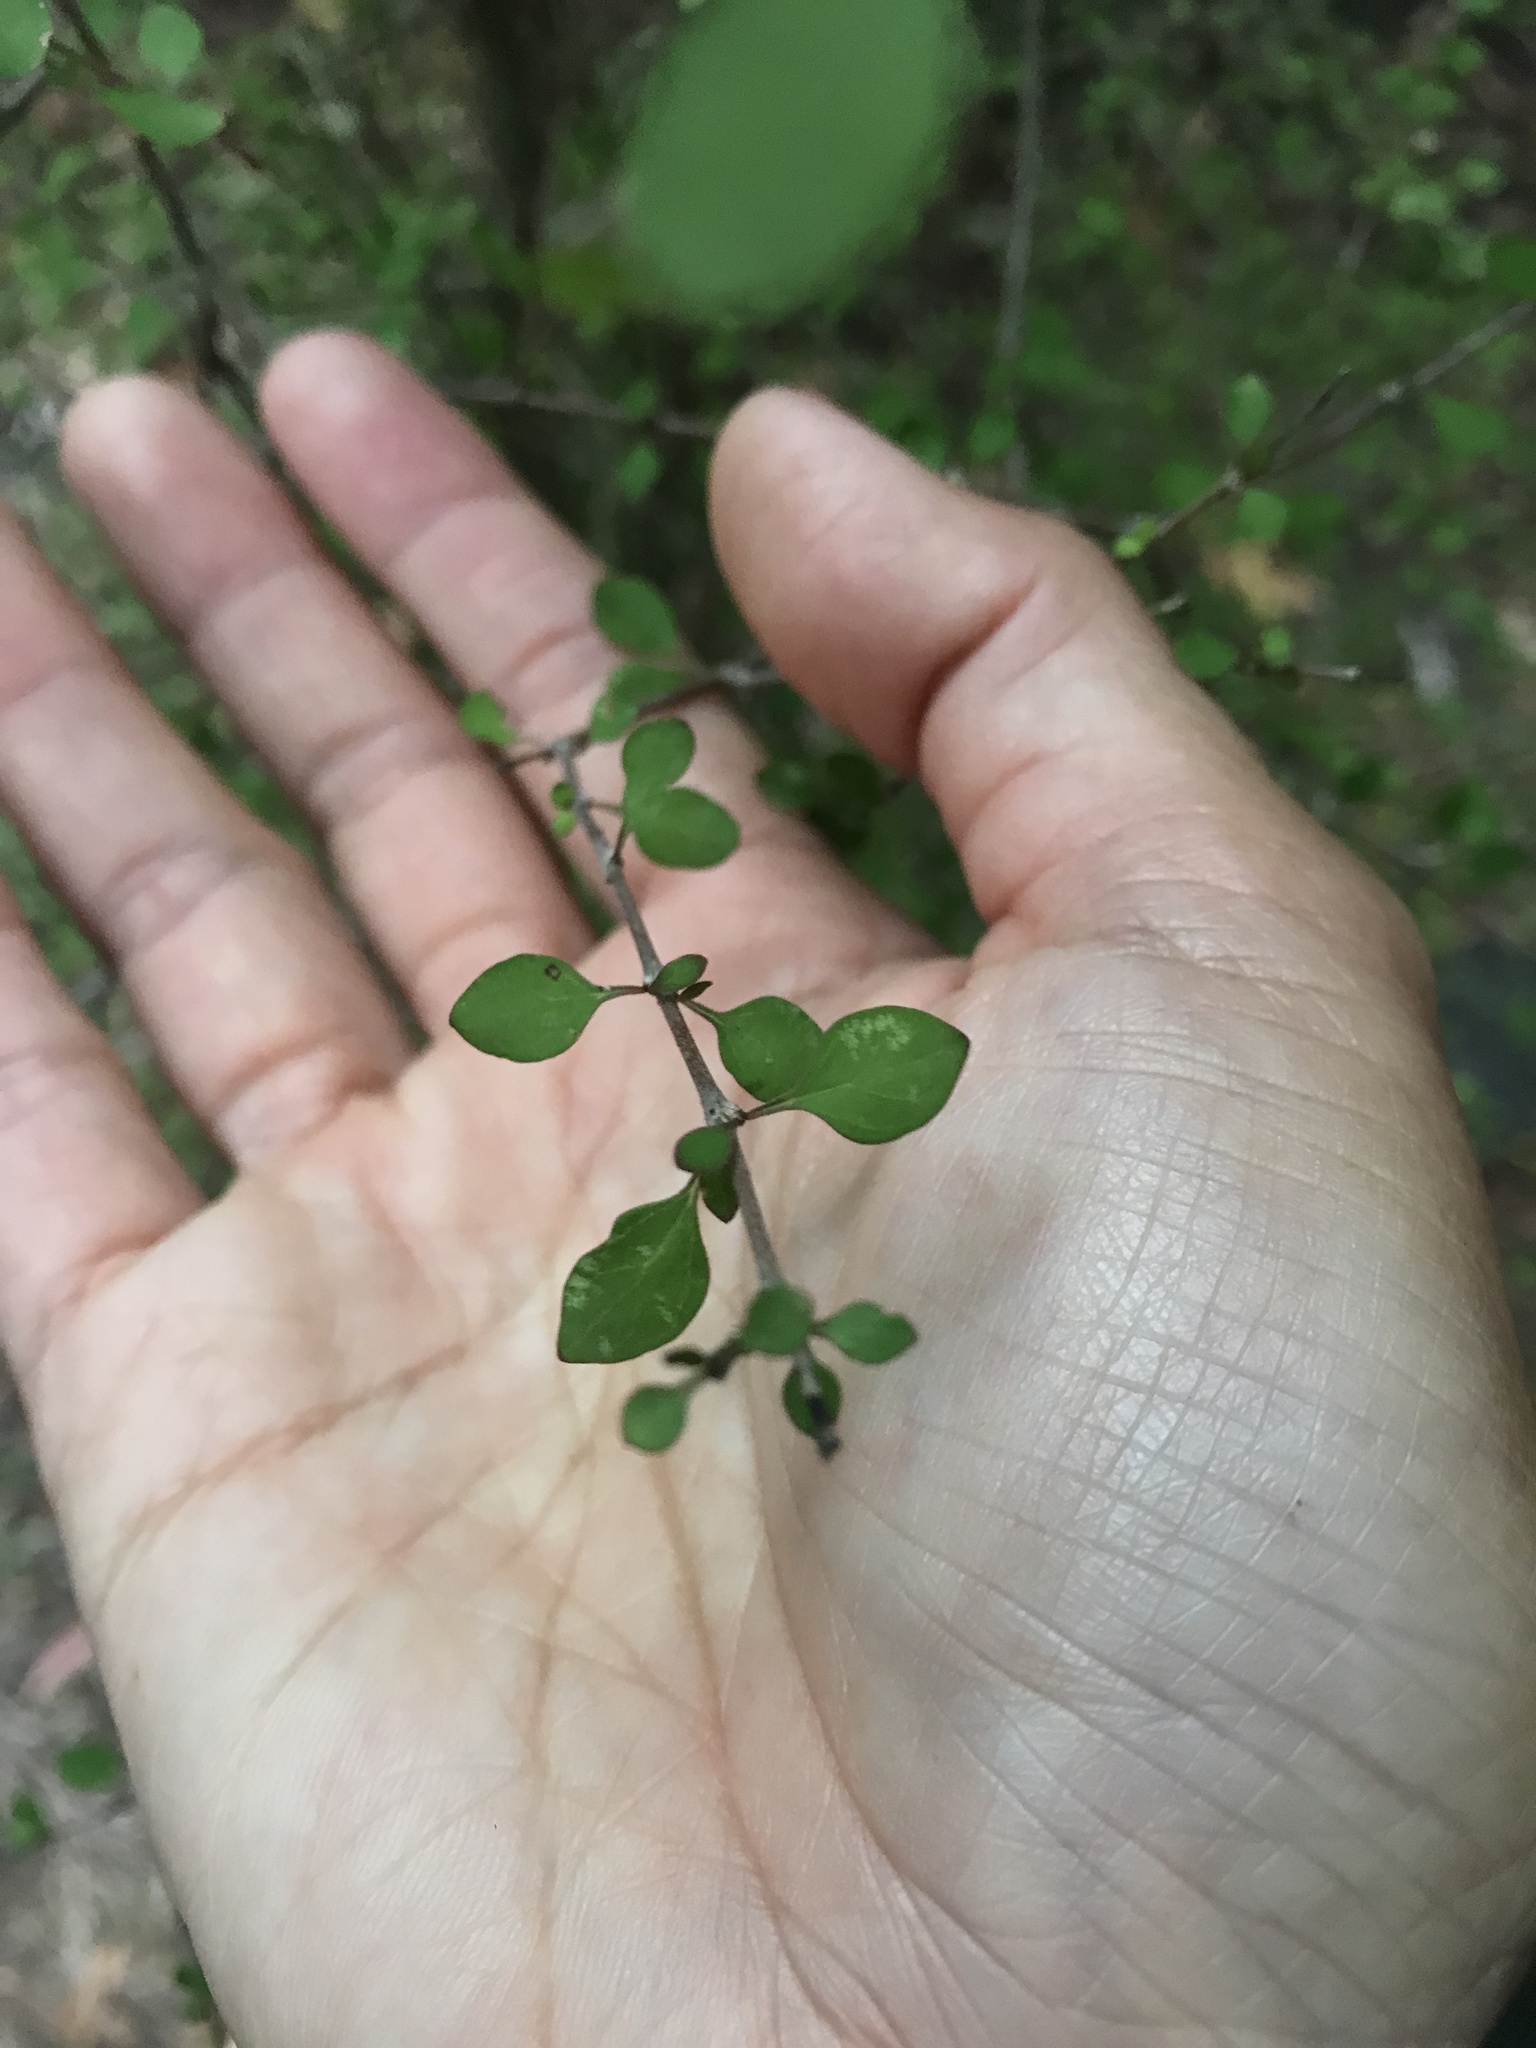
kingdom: Plantae
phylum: Tracheophyta
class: Magnoliopsida
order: Gentianales
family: Rubiaceae
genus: Coprosma
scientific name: Coprosma virescens
